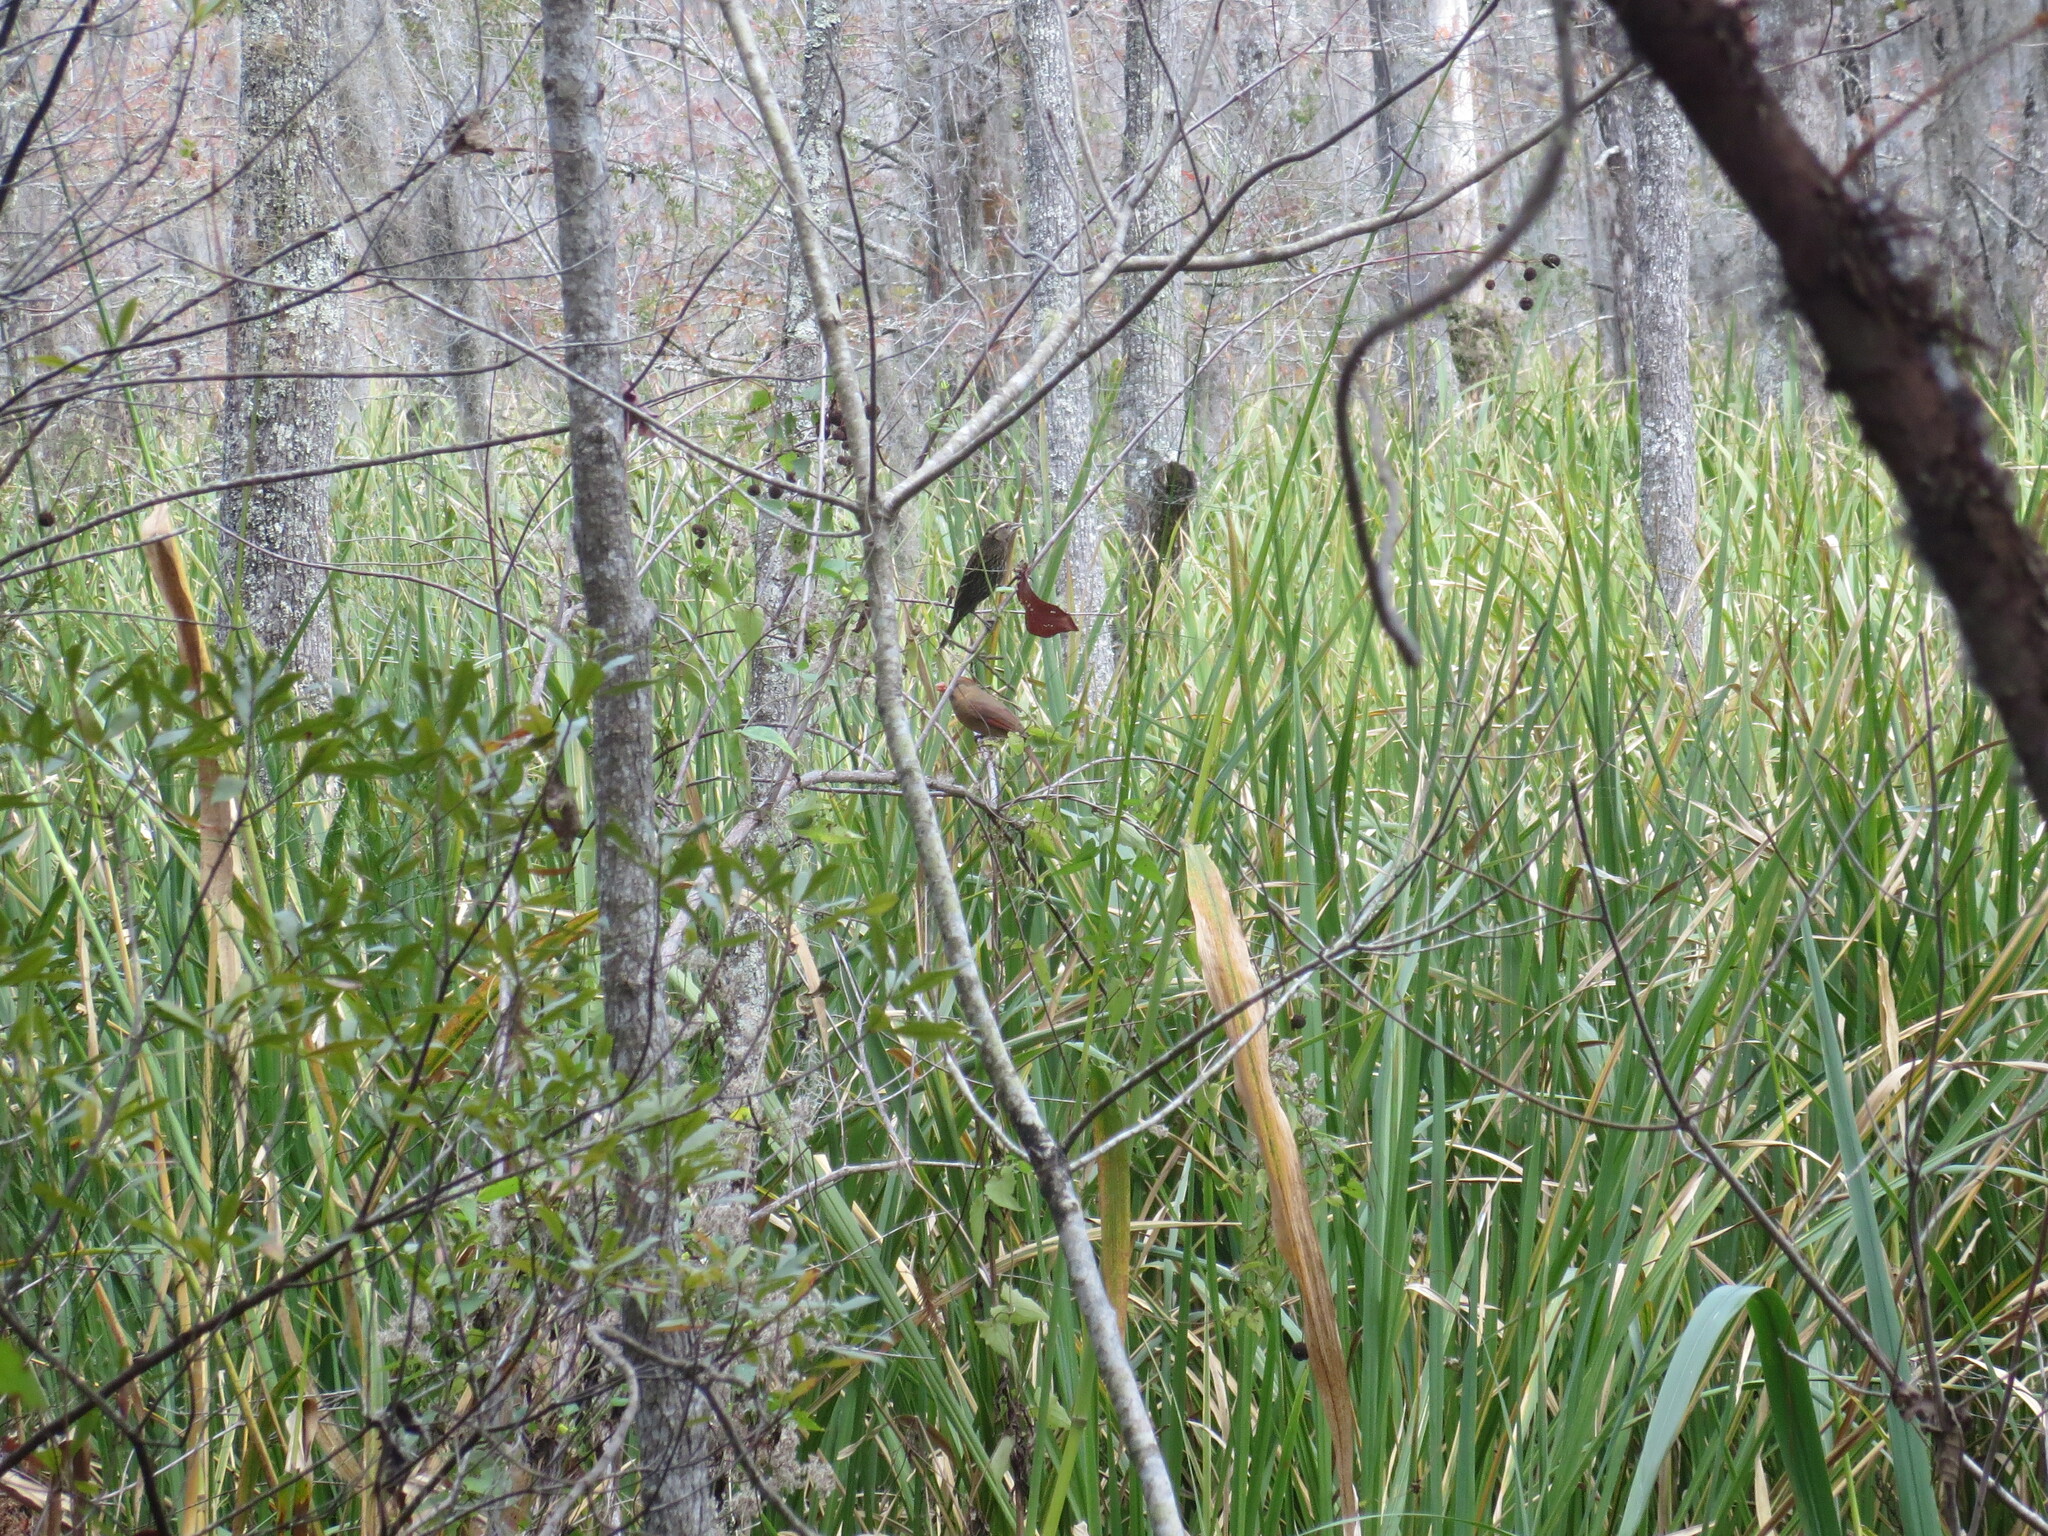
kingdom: Animalia
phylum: Chordata
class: Aves
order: Passeriformes
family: Icteridae
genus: Agelaius
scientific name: Agelaius phoeniceus
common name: Red-winged blackbird
